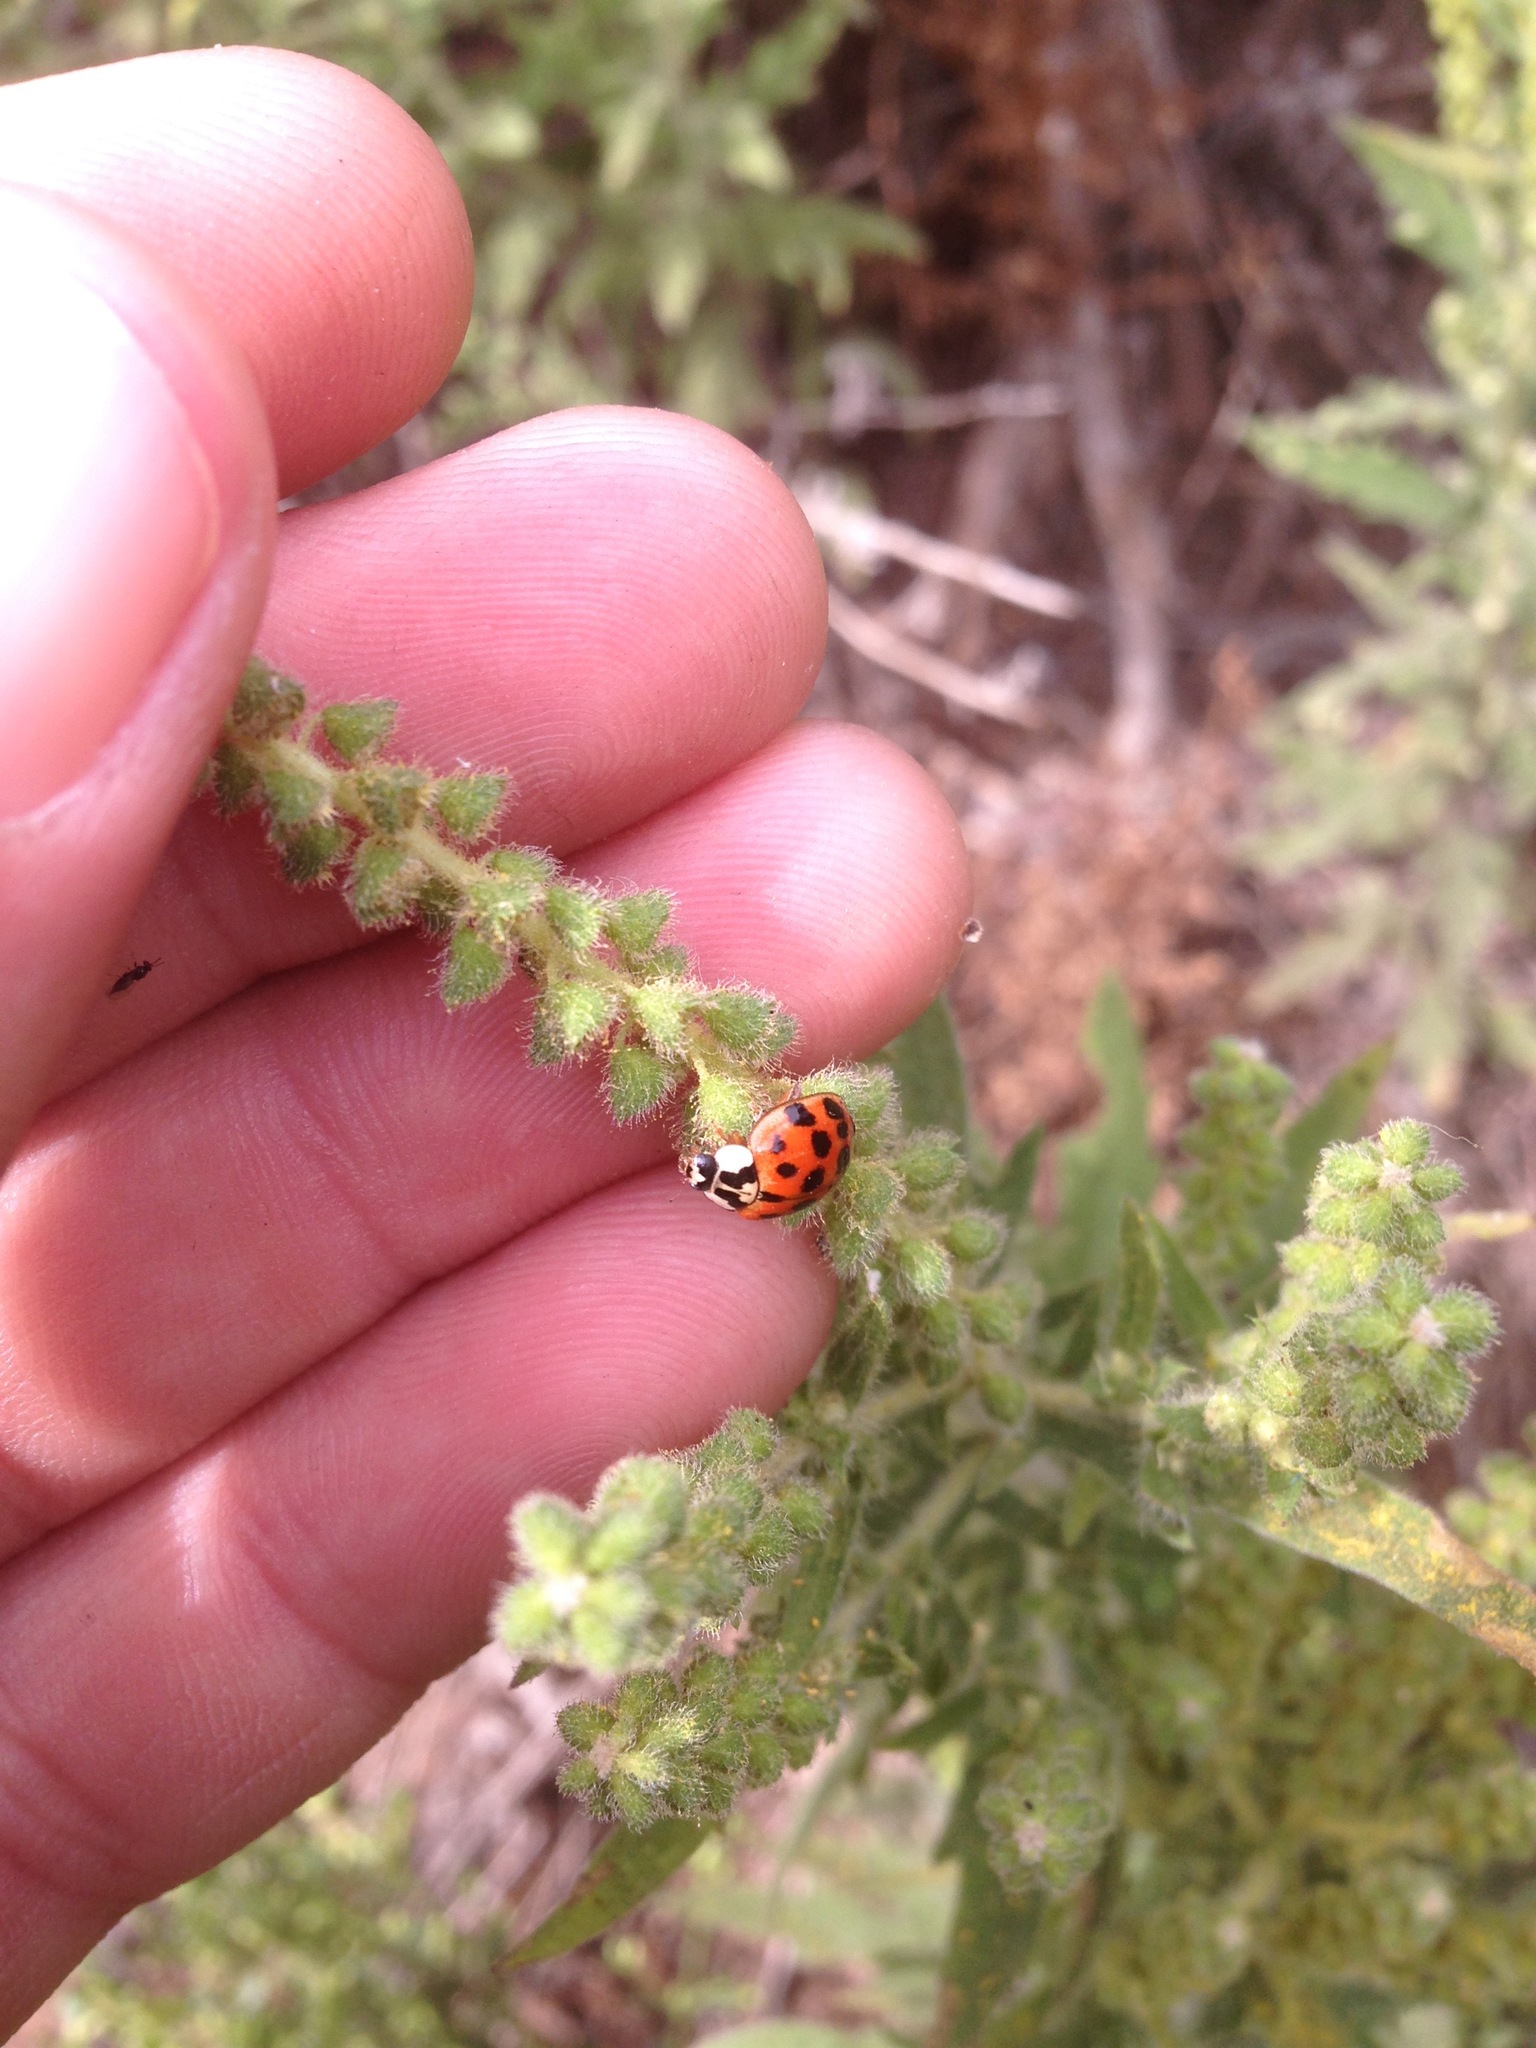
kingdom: Animalia
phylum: Arthropoda
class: Insecta
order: Coleoptera
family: Coccinellidae
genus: Harmonia
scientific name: Harmonia axyridis
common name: Harlequin ladybird
